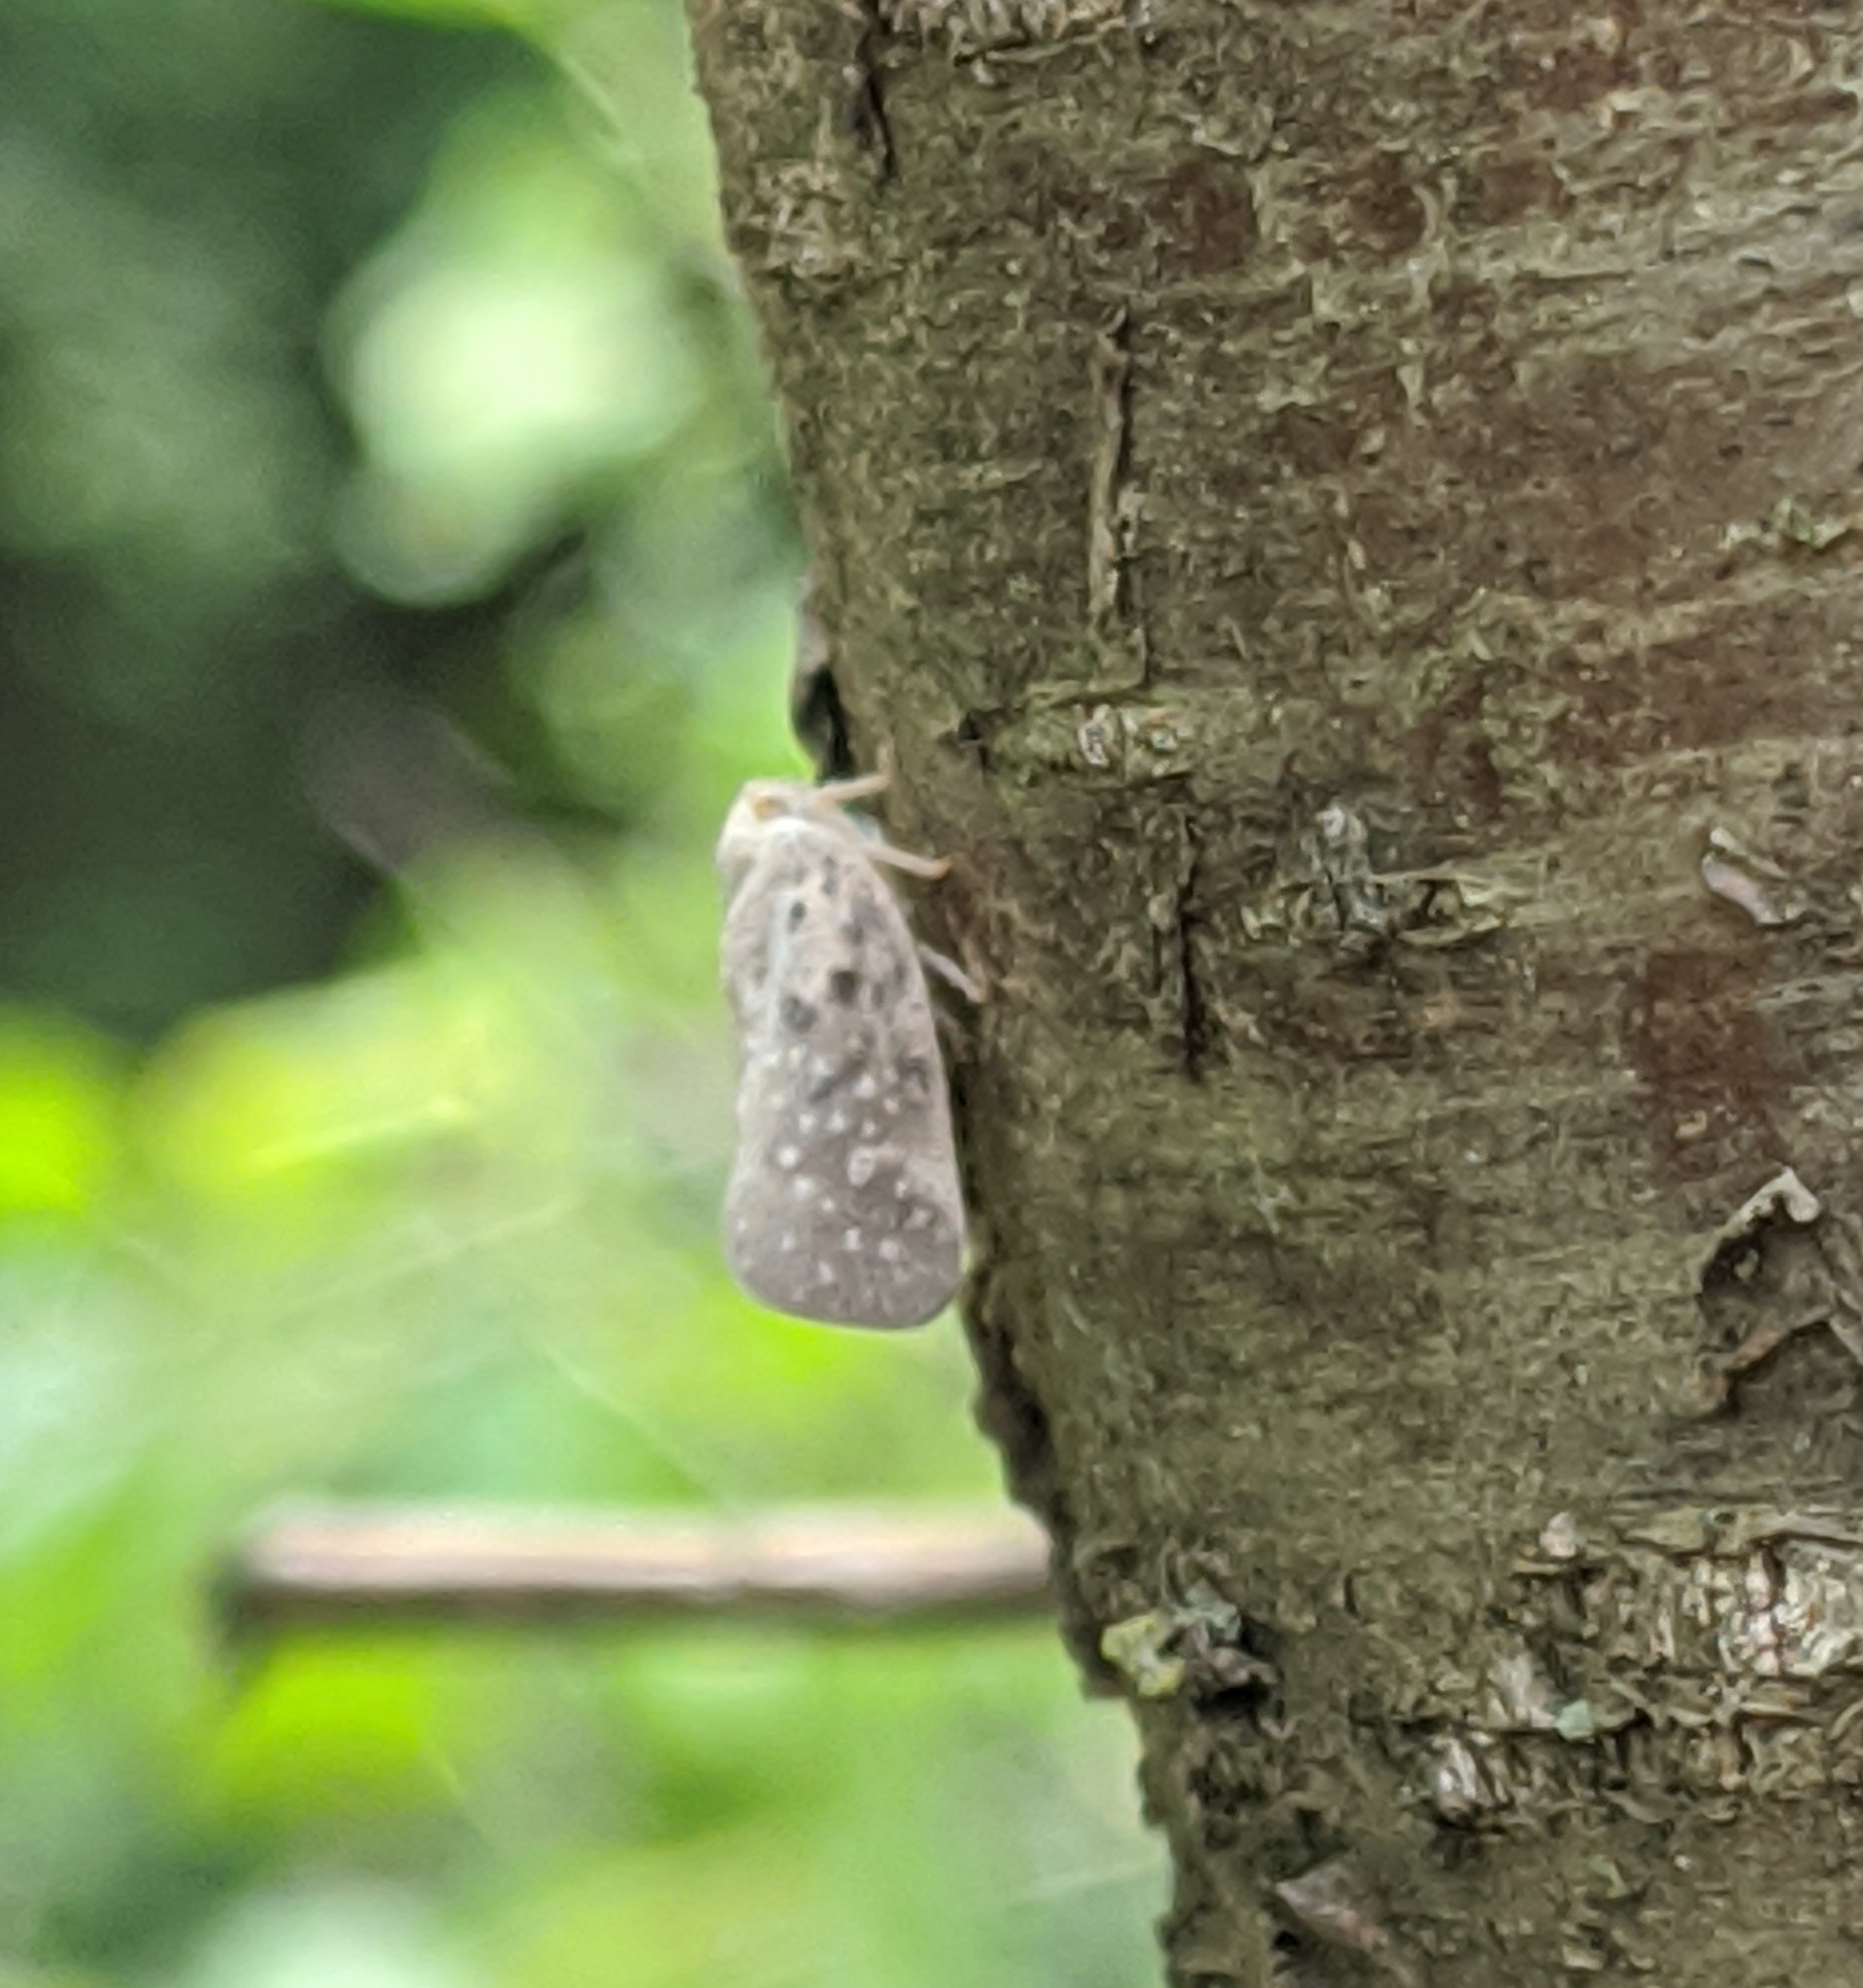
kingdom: Animalia
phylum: Arthropoda
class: Insecta
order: Hemiptera
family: Flatidae
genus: Metcalfa
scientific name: Metcalfa pruinosa
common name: Citrus flatid planthopper
